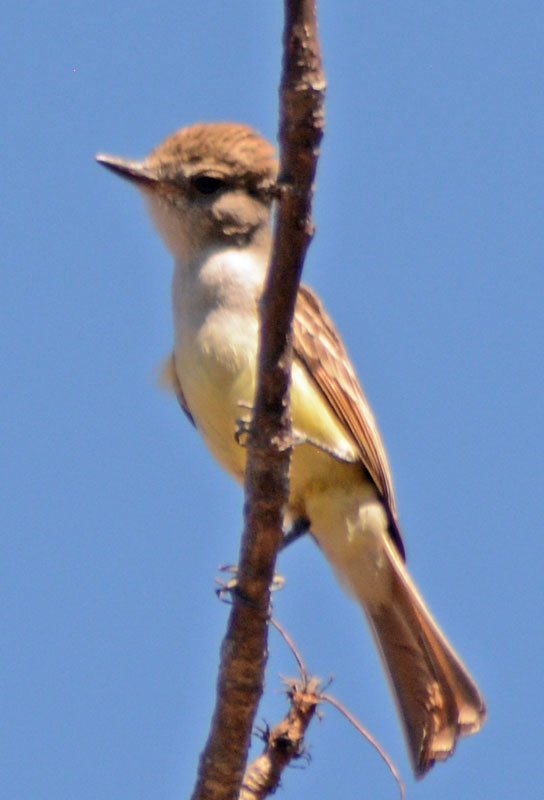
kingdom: Animalia
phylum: Chordata
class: Aves
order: Passeriformes
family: Tyrannidae
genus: Myiarchus
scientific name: Myiarchus cinerascens
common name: Ash-throated flycatcher
